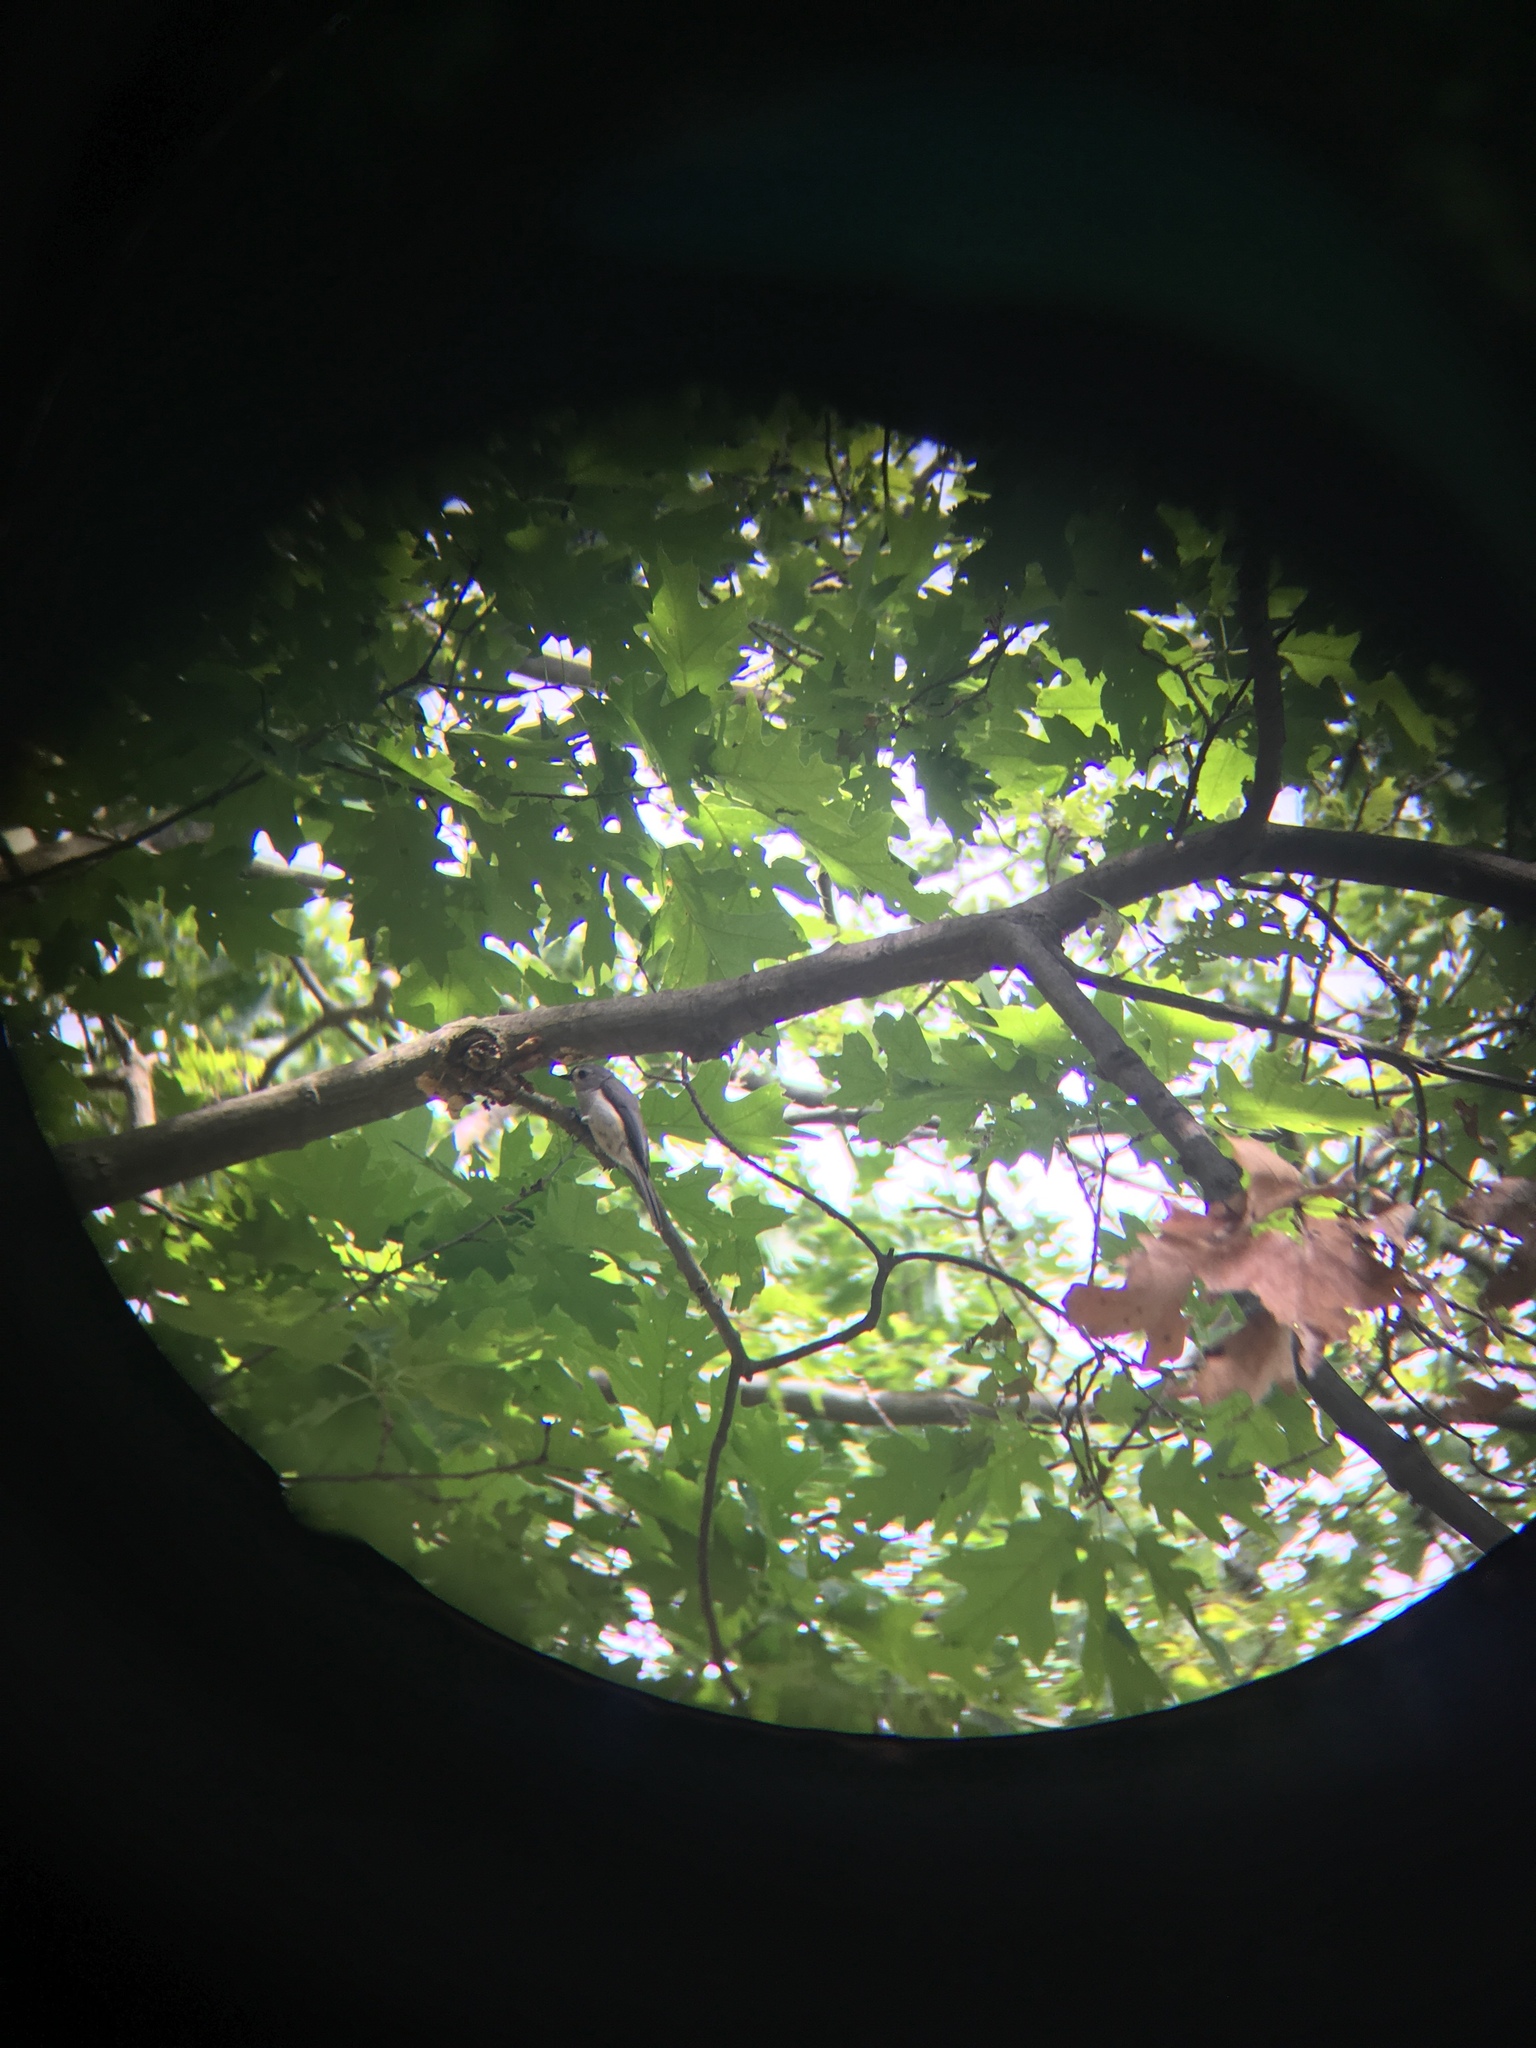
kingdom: Animalia
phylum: Chordata
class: Aves
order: Passeriformes
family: Paridae
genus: Baeolophus
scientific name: Baeolophus bicolor
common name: Tufted titmouse
